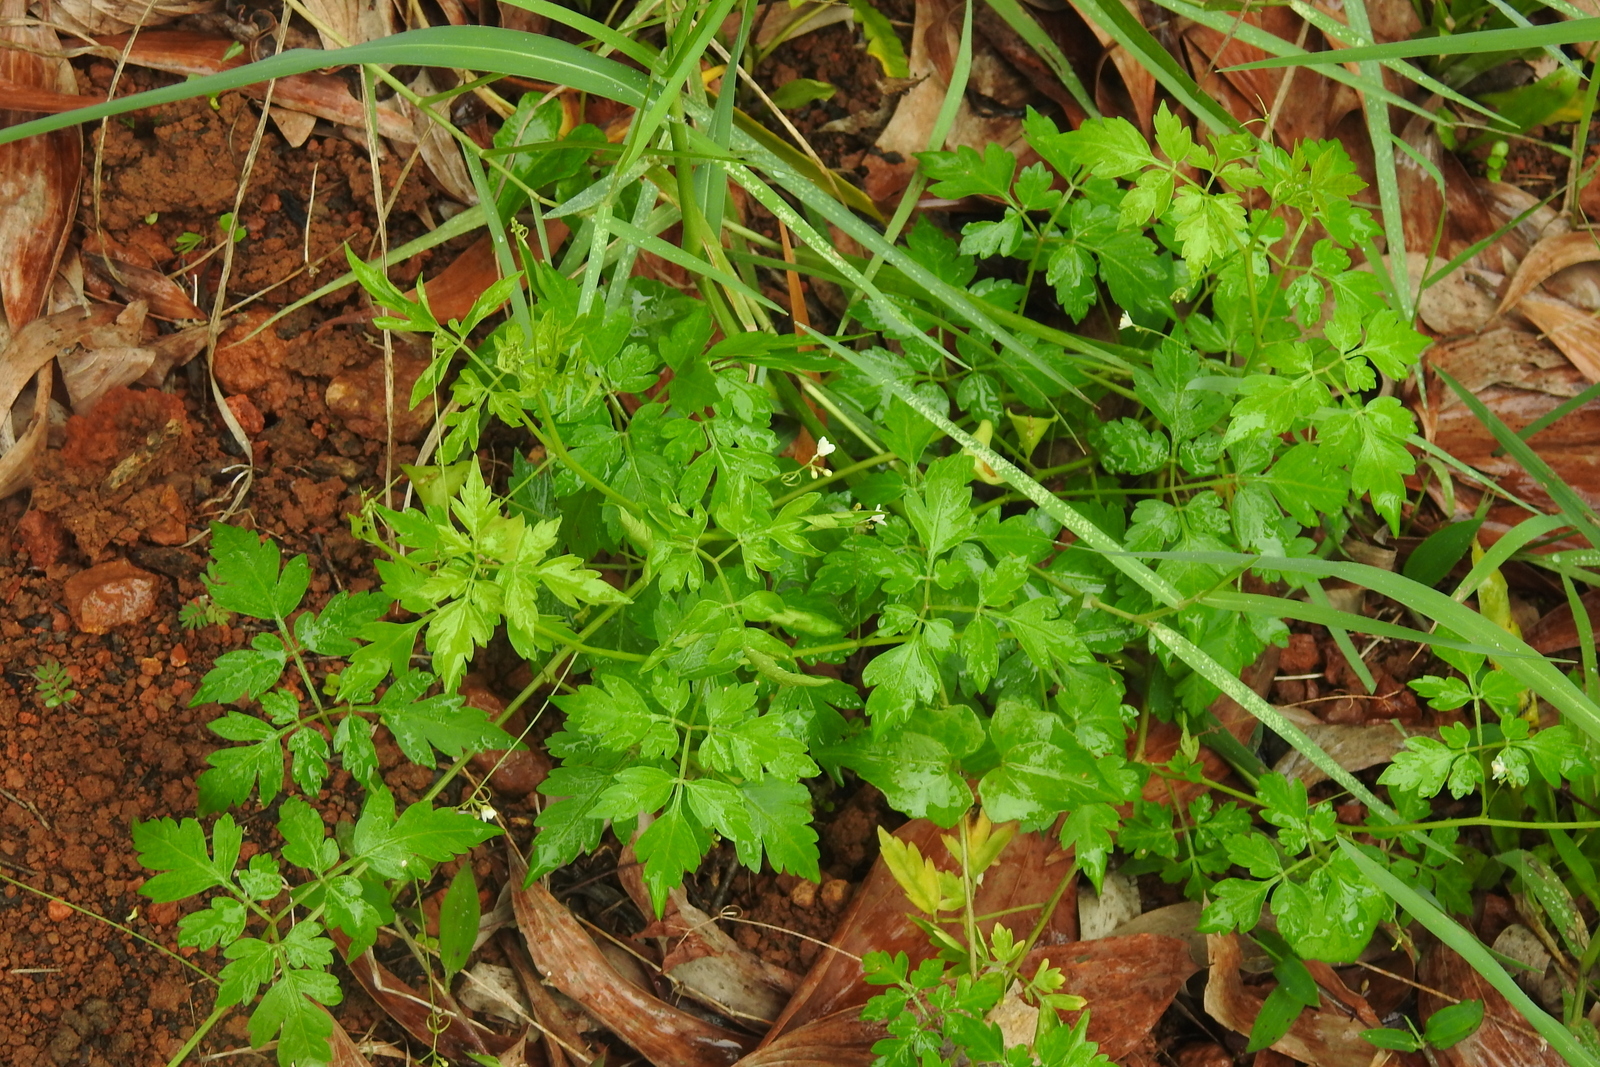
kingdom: Plantae
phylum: Tracheophyta
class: Magnoliopsida
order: Sapindales
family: Sapindaceae
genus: Cardiospermum
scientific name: Cardiospermum halicacabum
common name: Balloon vine
